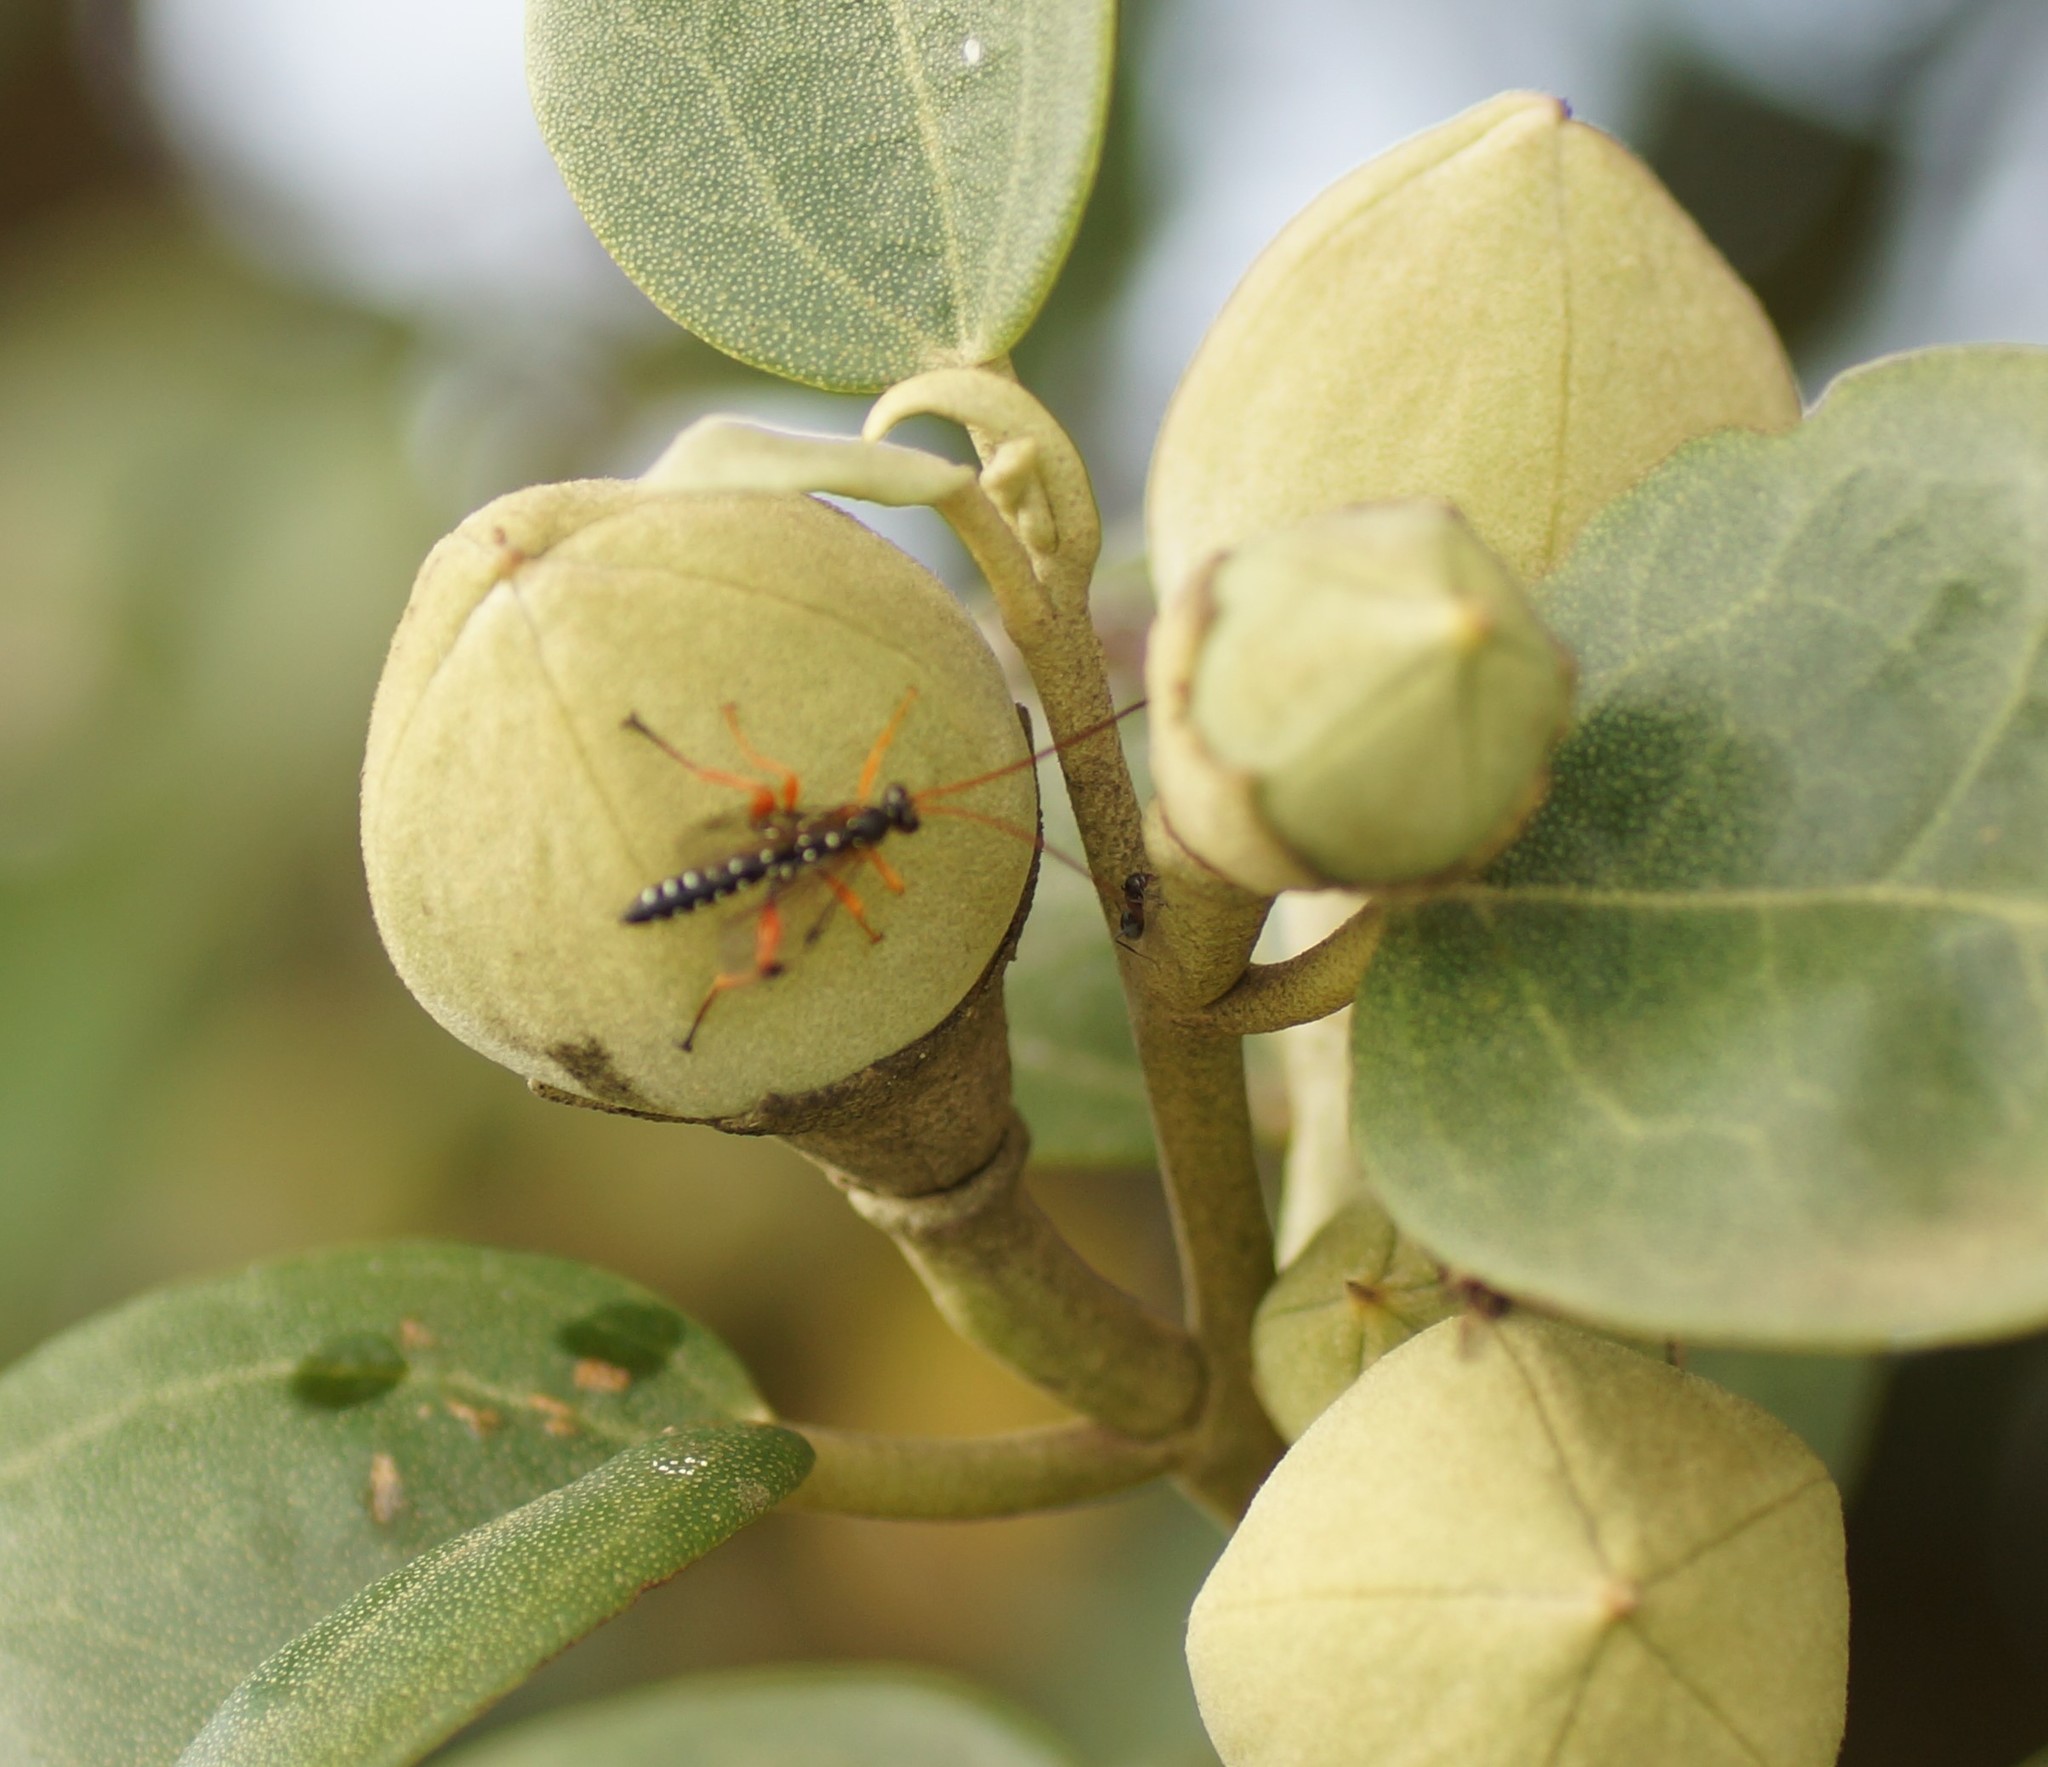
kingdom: Animalia
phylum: Arthropoda
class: Insecta
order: Hymenoptera
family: Ichneumonidae
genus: Echthromorpha
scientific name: Echthromorpha intricatoria
